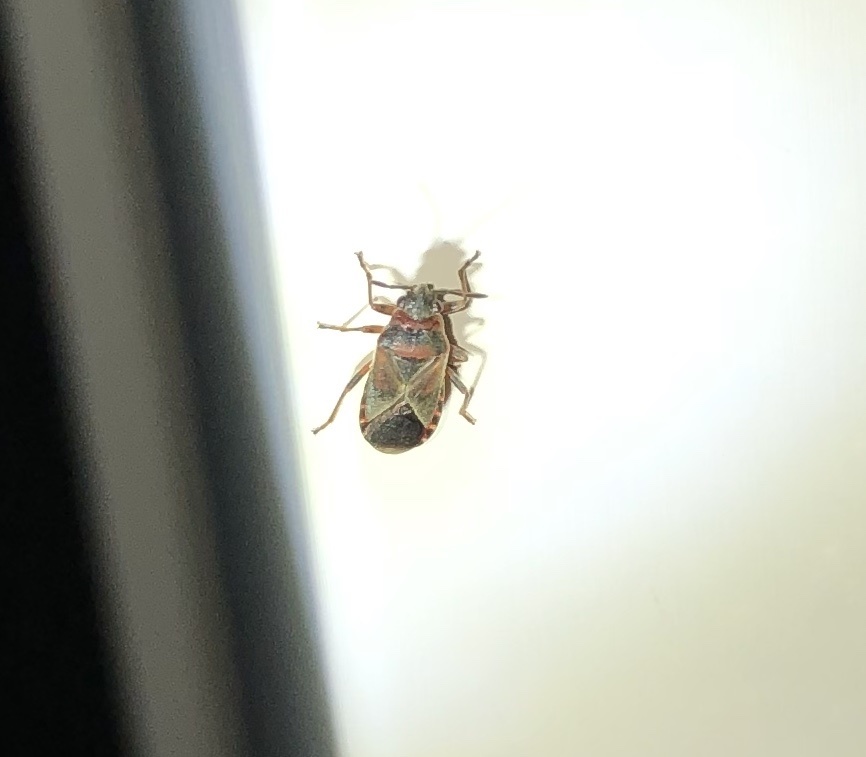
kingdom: Animalia
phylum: Arthropoda
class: Insecta
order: Hemiptera
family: Lygaeidae
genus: Arocatus
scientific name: Arocatus melanocephalus
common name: Lygaeid bug
